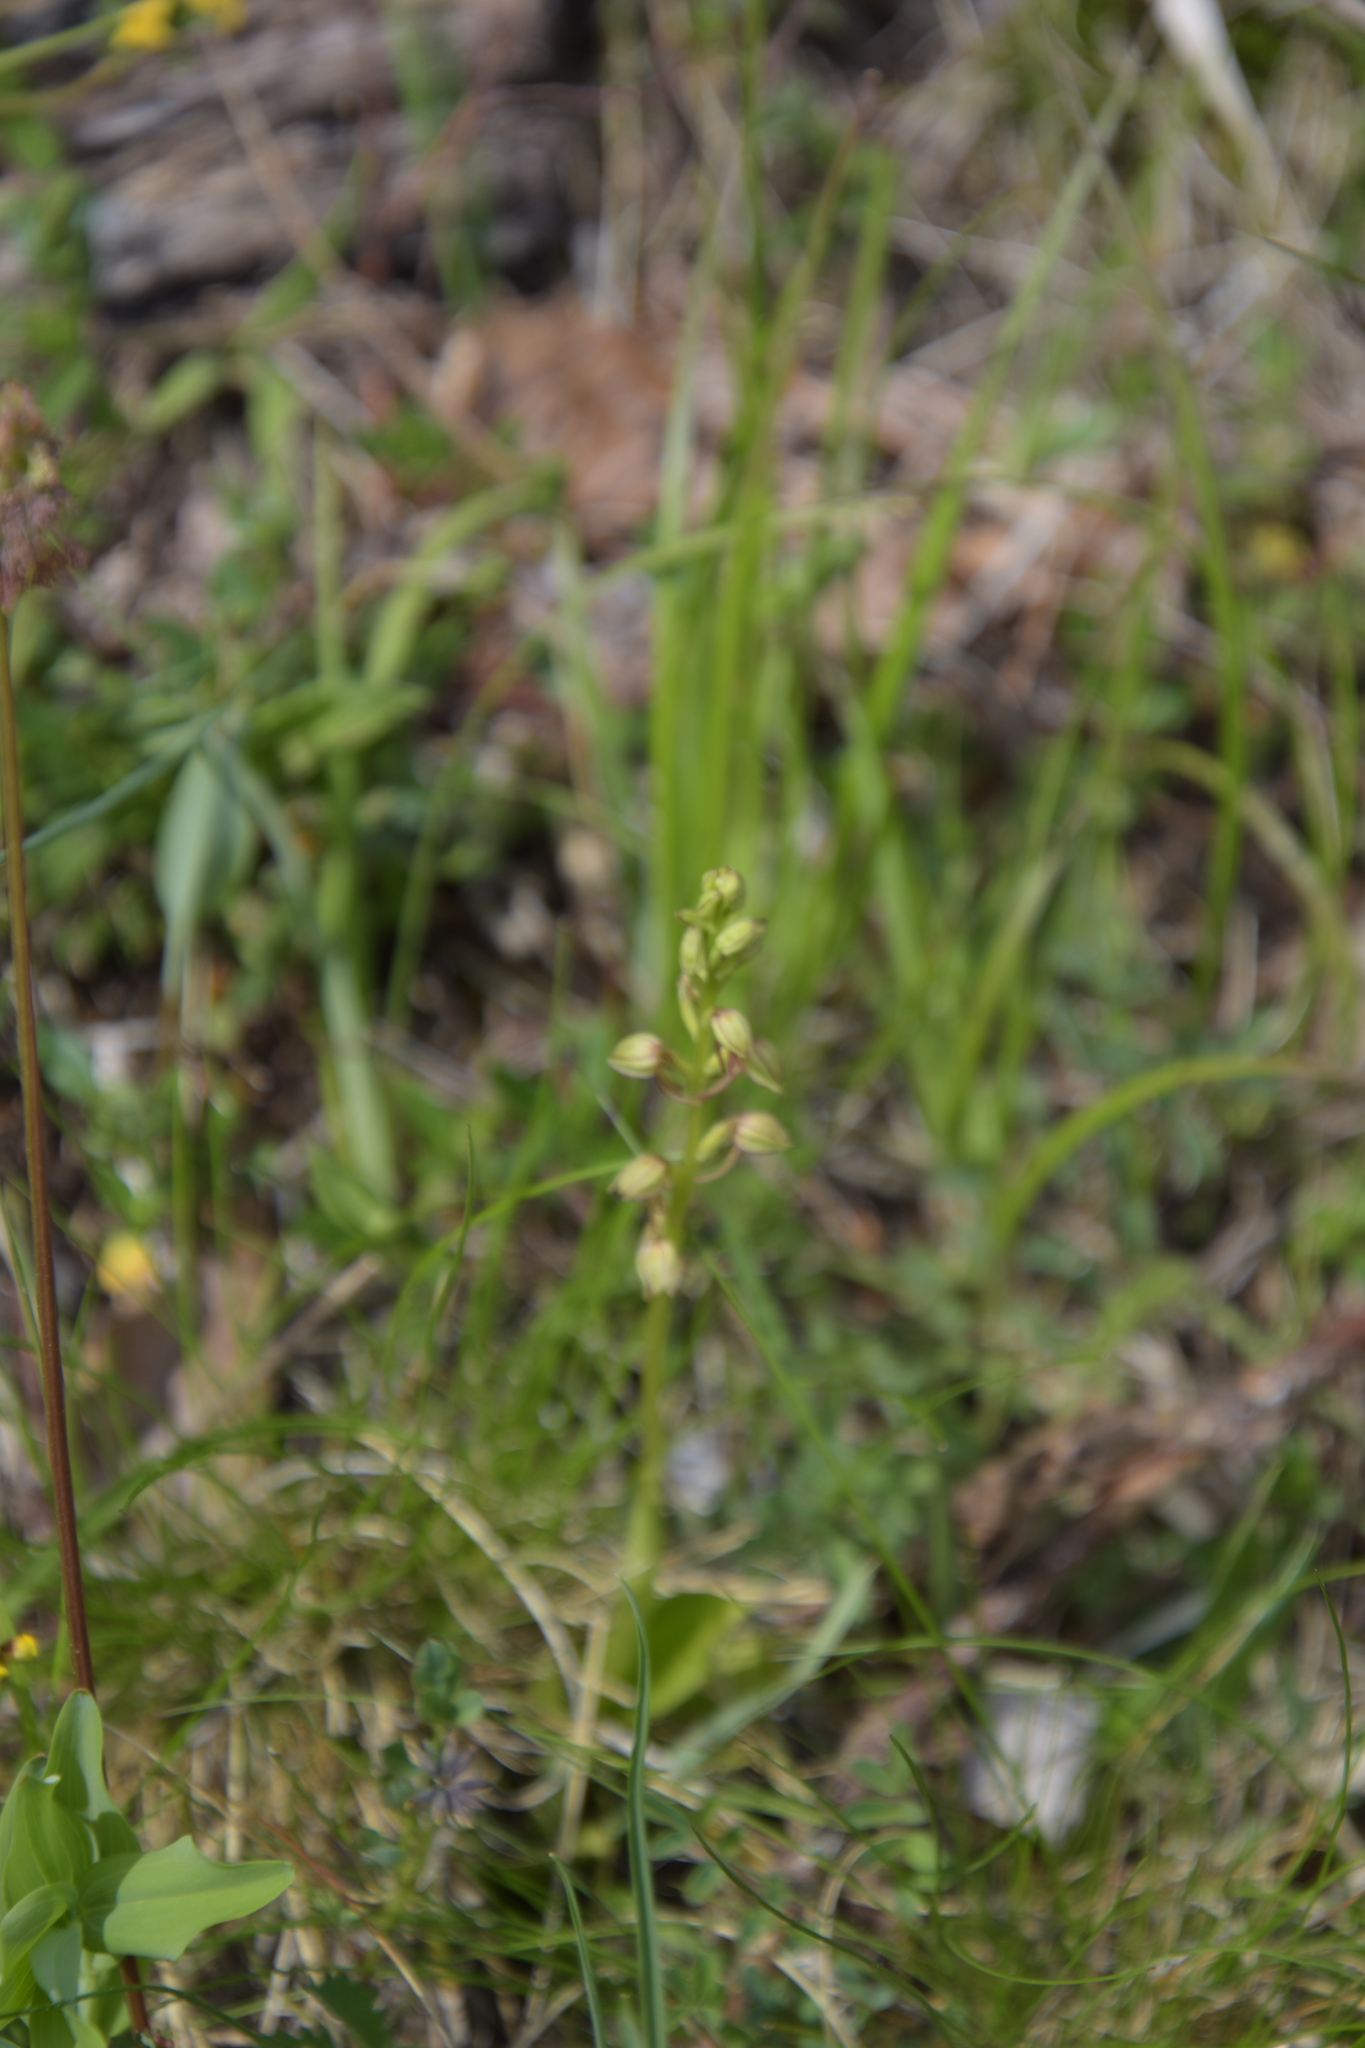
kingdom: Plantae
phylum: Tracheophyta
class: Liliopsida
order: Asparagales
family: Orchidaceae
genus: Orchis
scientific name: Orchis anthropophora
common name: Man orchid
